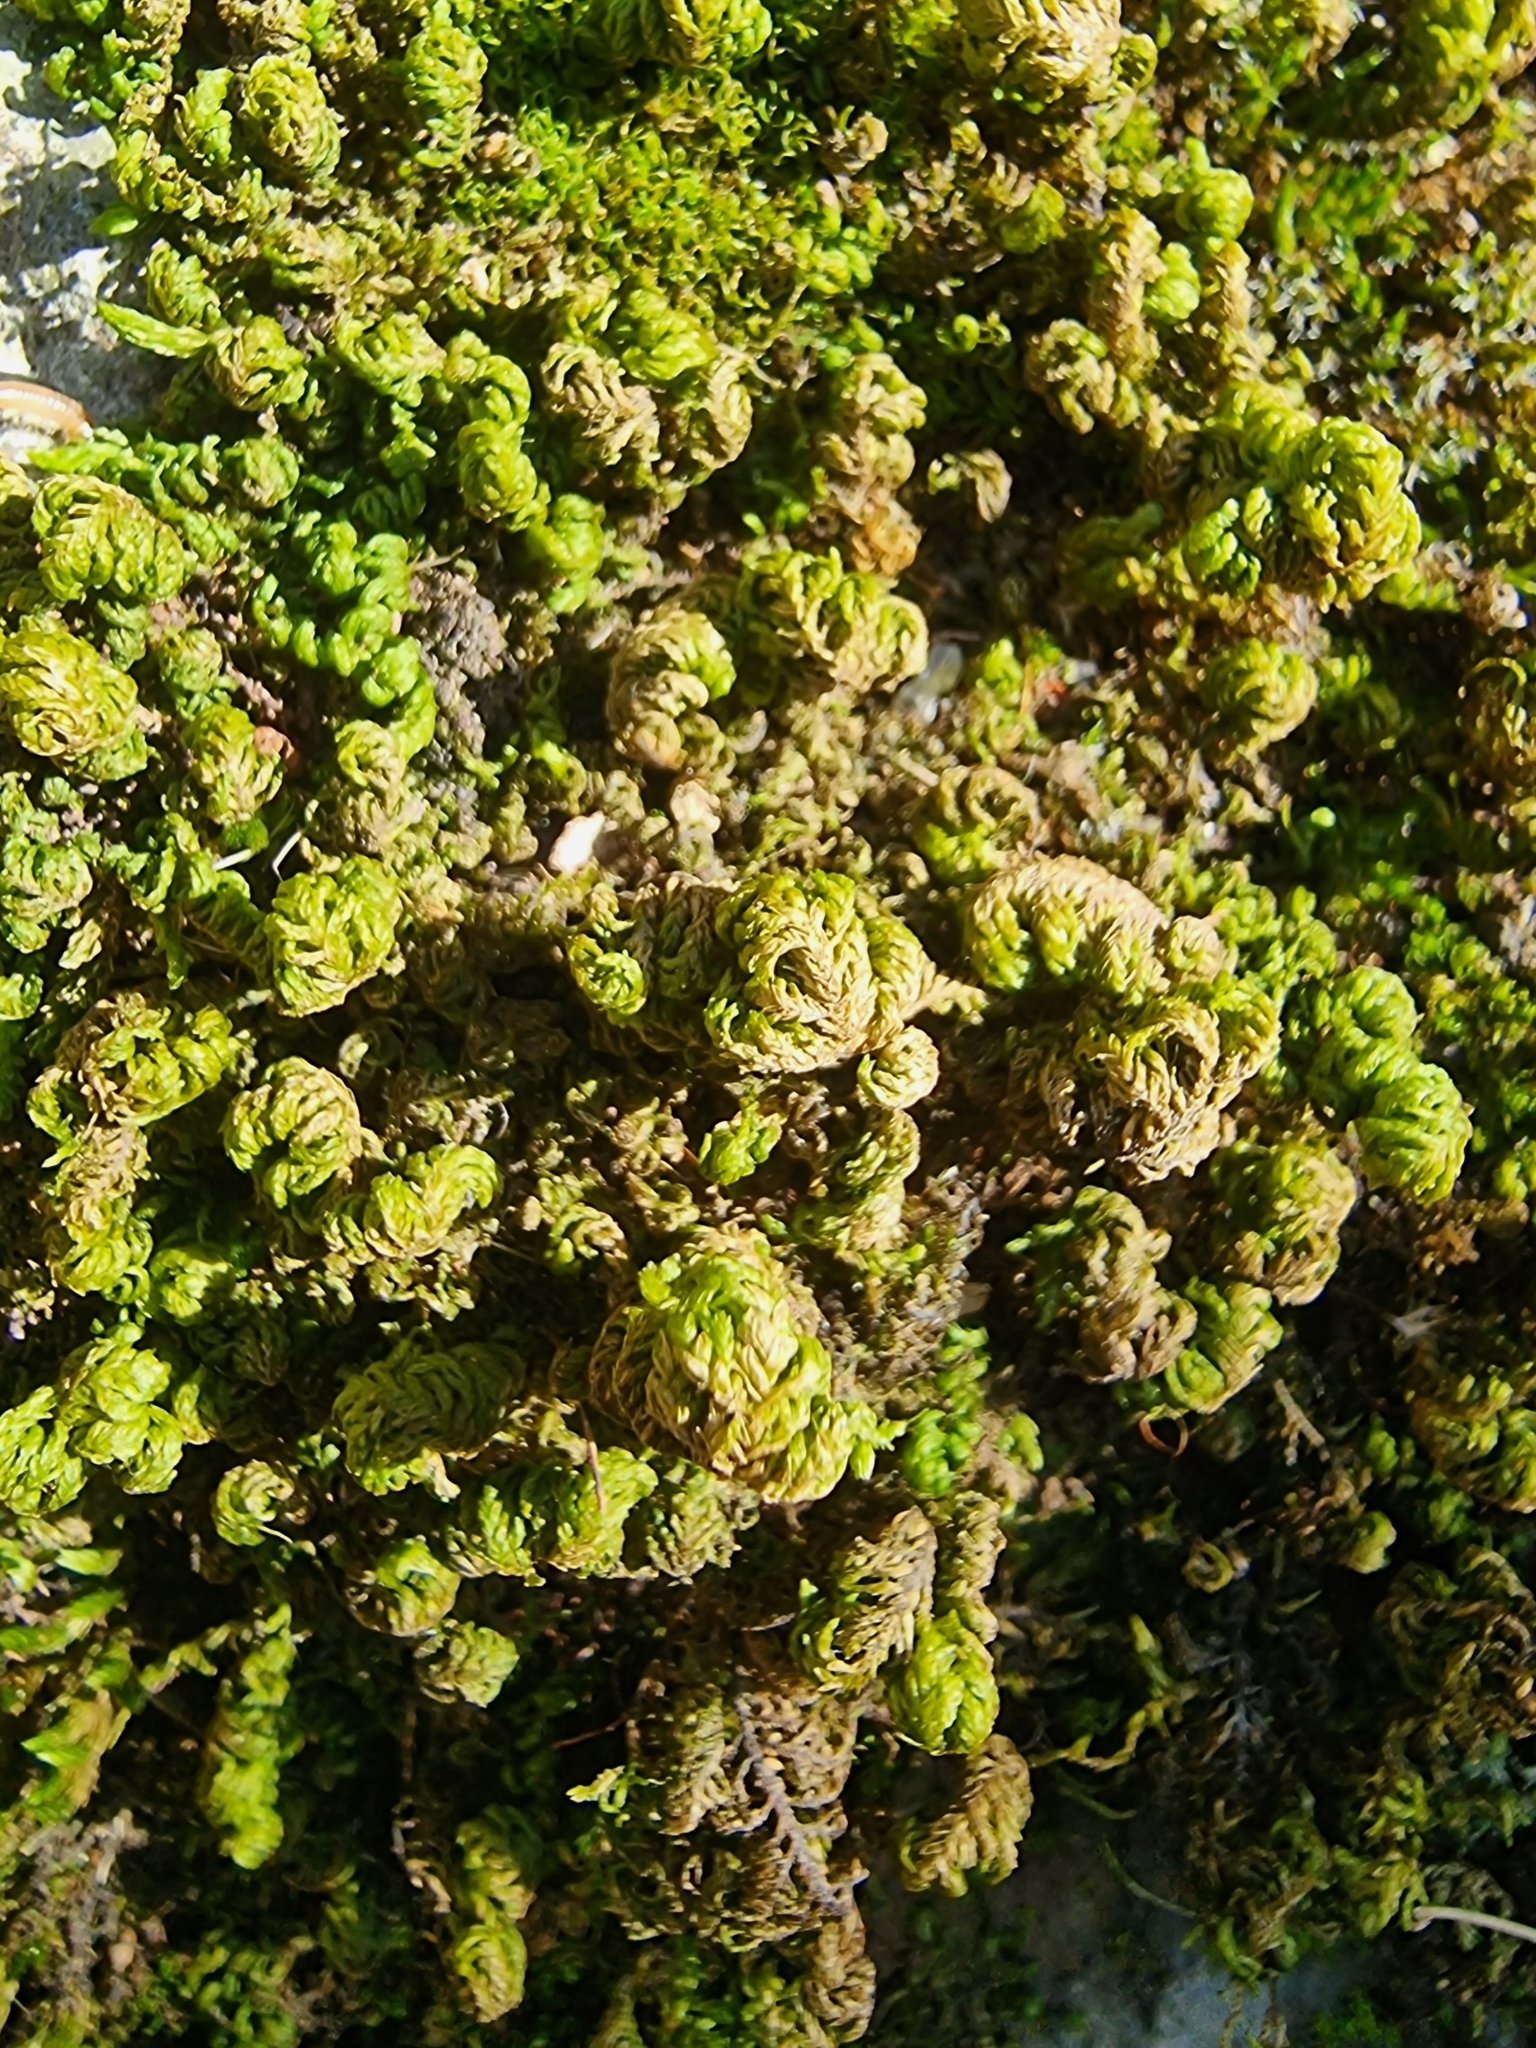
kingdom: Plantae
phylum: Bryophyta
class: Bryopsida
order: Hypnales
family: Neckeraceae
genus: Leptodon
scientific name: Leptodon smithii
